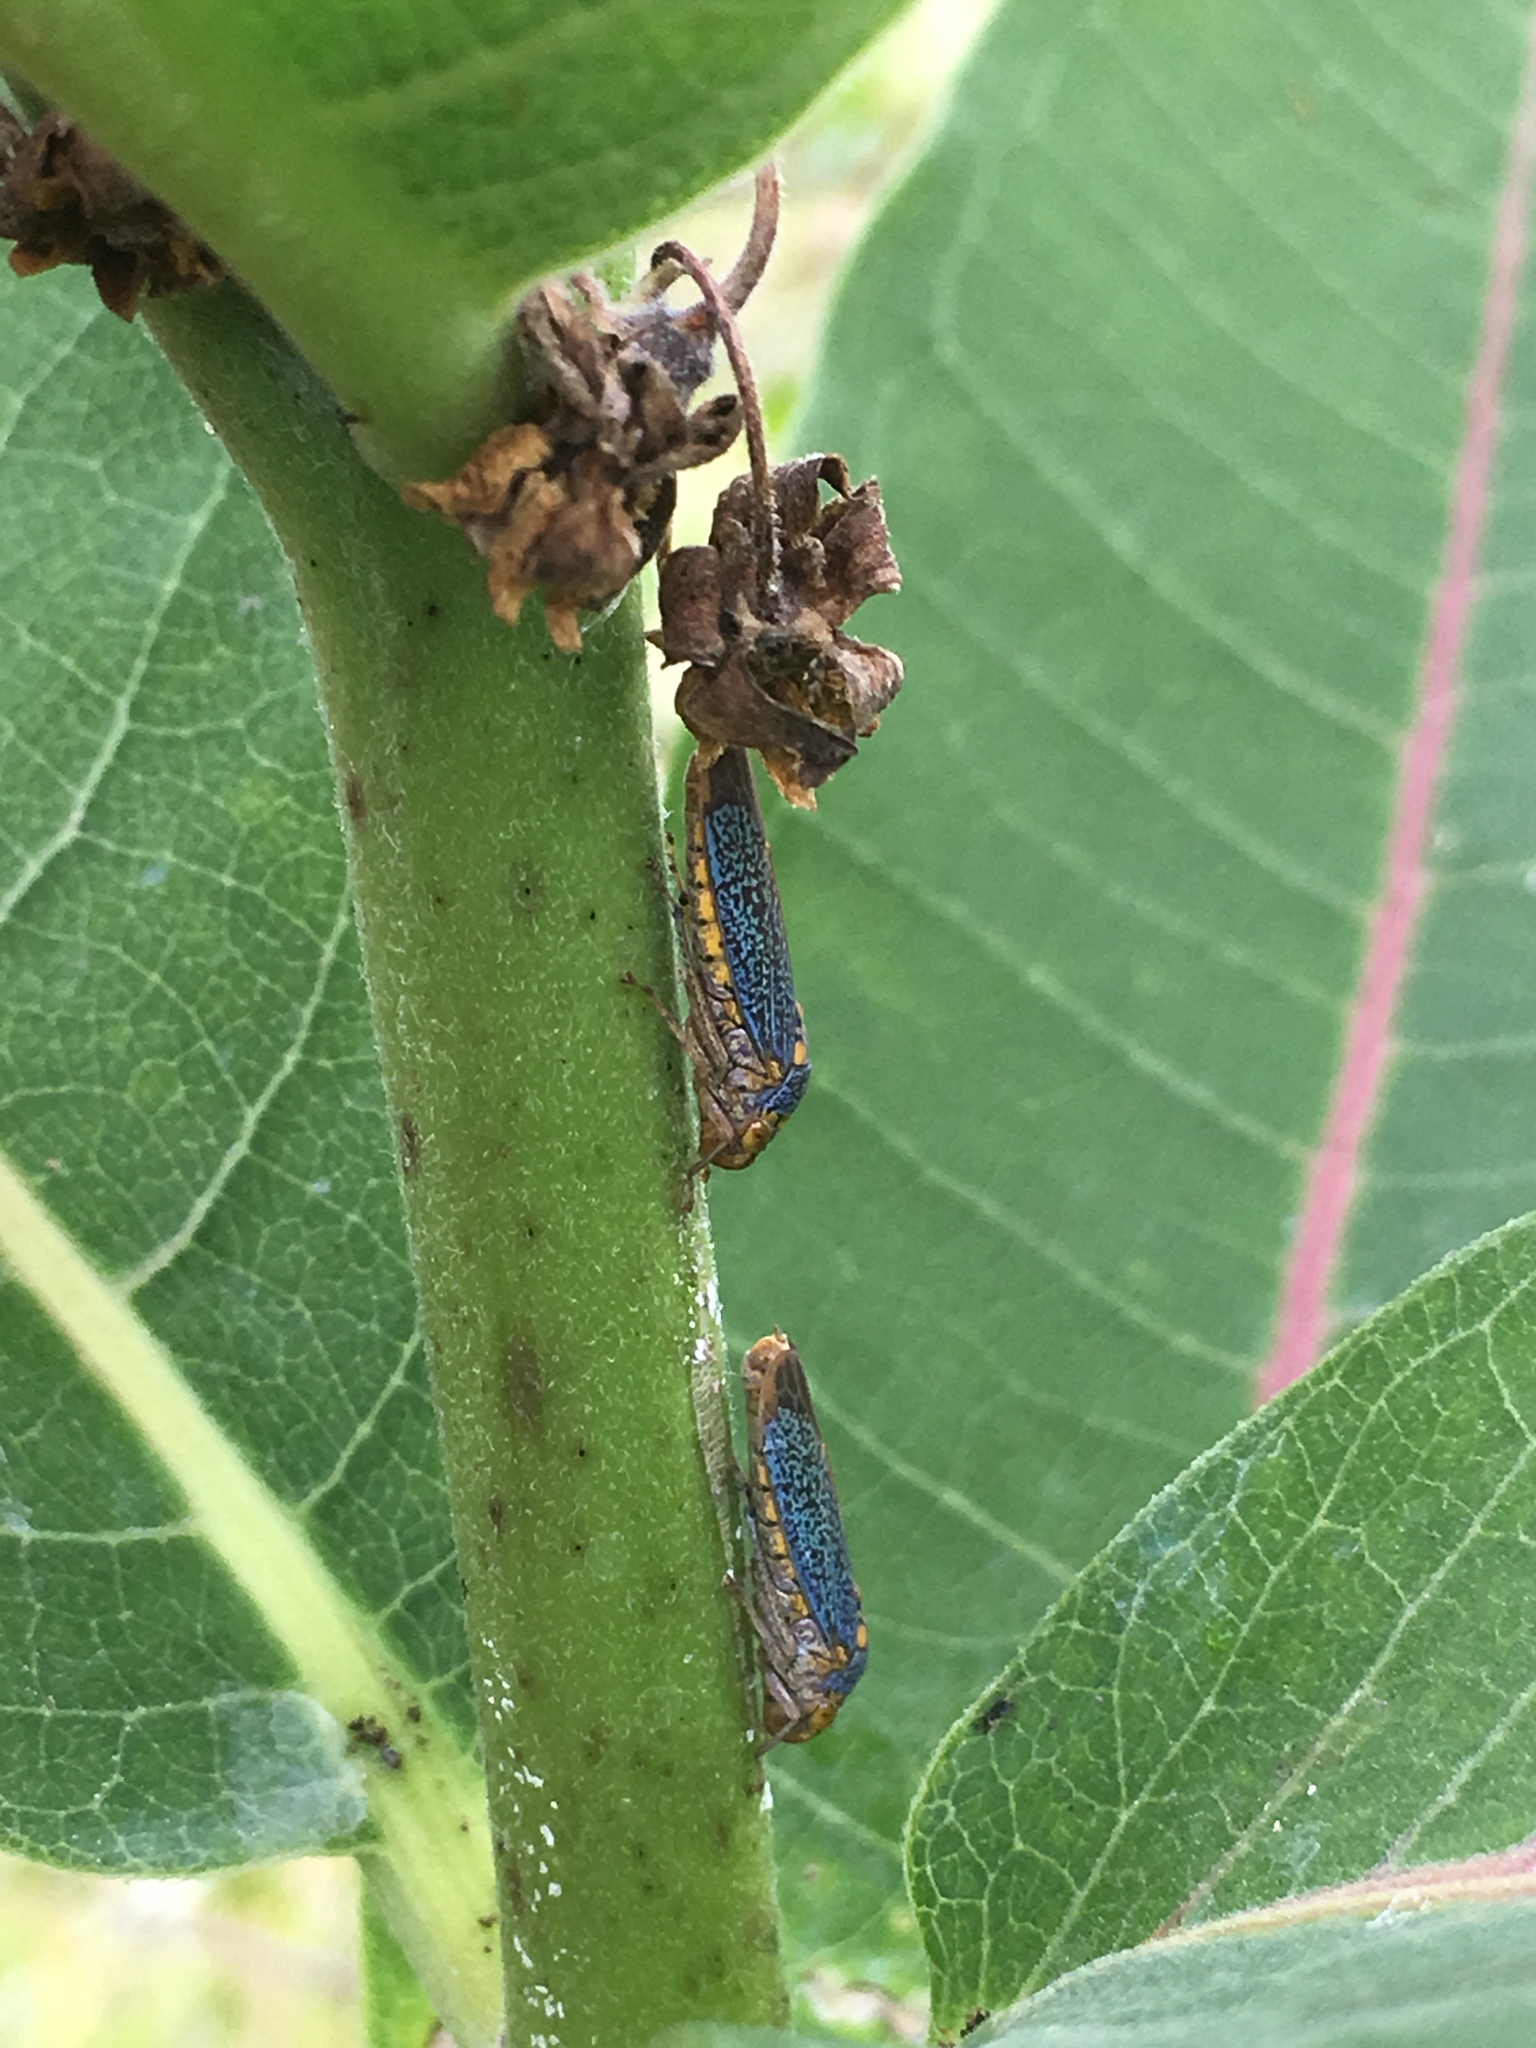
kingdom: Animalia
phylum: Arthropoda
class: Insecta
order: Hemiptera
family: Cicadellidae
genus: Oncometopia
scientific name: Oncometopia orbona
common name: Broad-headed sharpshooter
